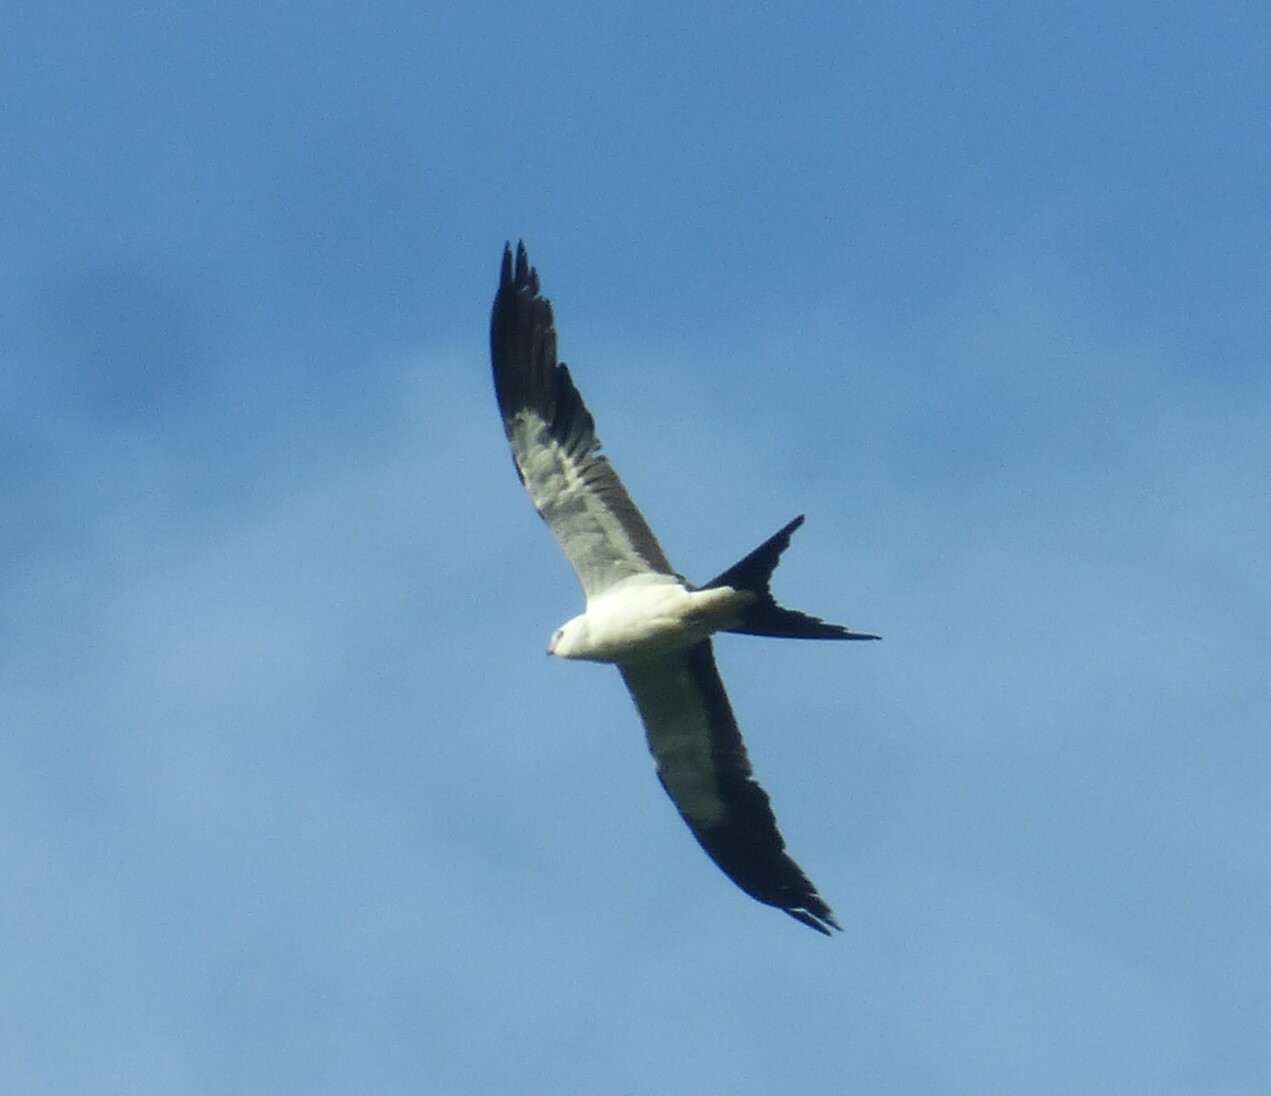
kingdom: Animalia
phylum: Chordata
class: Aves
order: Accipitriformes
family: Accipitridae
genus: Elanoides
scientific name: Elanoides forficatus
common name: Swallow-tailed kite
